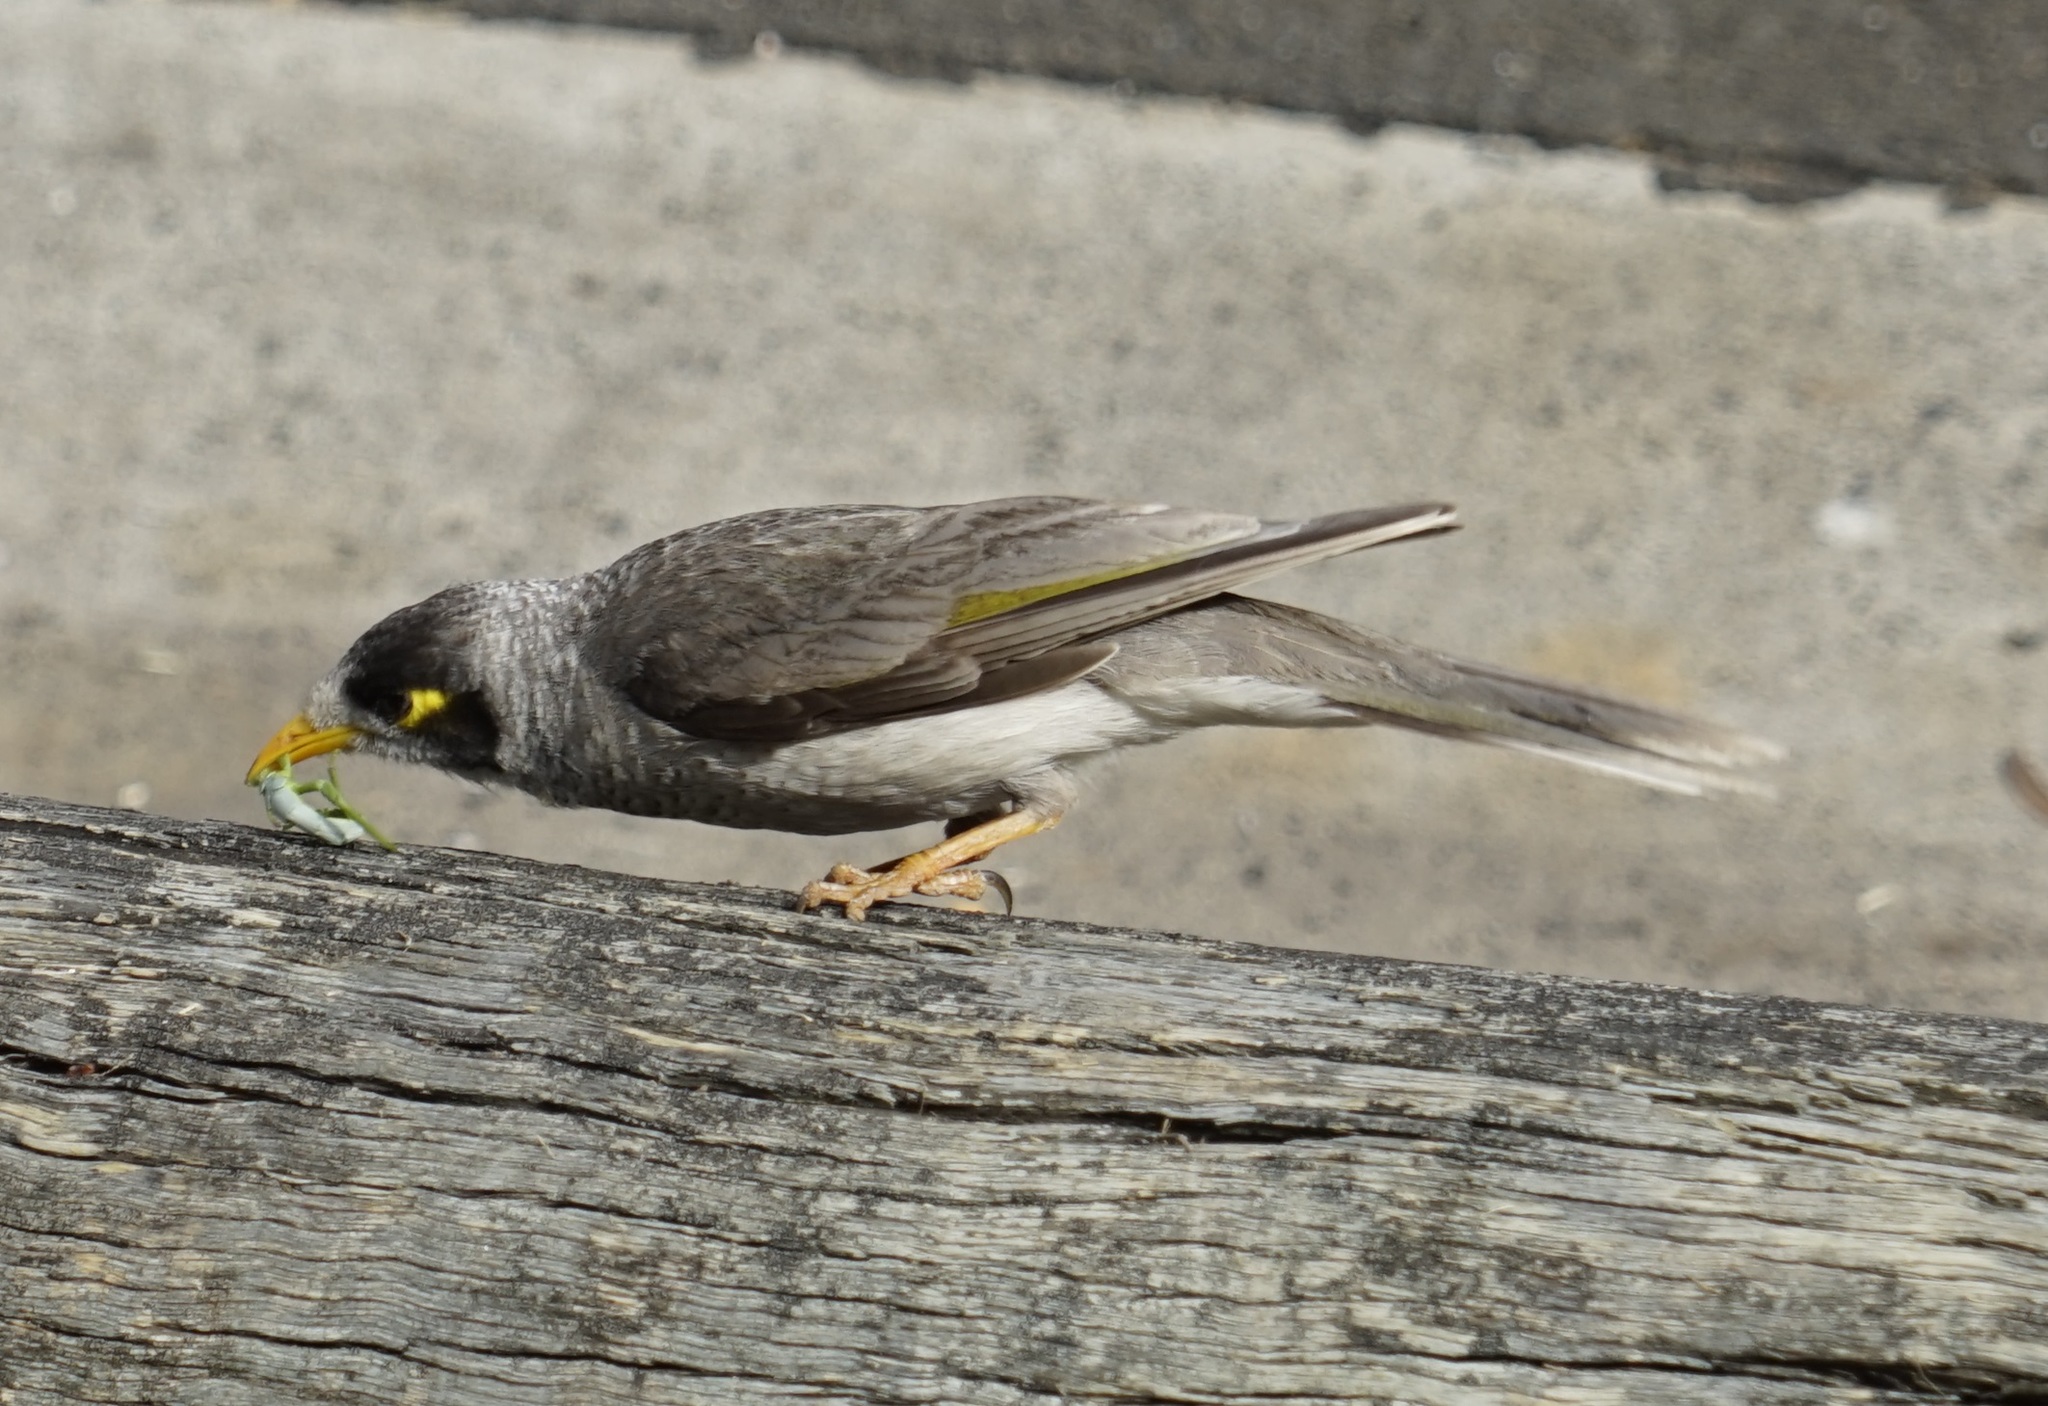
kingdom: Animalia
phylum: Chordata
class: Aves
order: Passeriformes
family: Meliphagidae
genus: Manorina
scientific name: Manorina melanocephala
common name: Noisy miner
